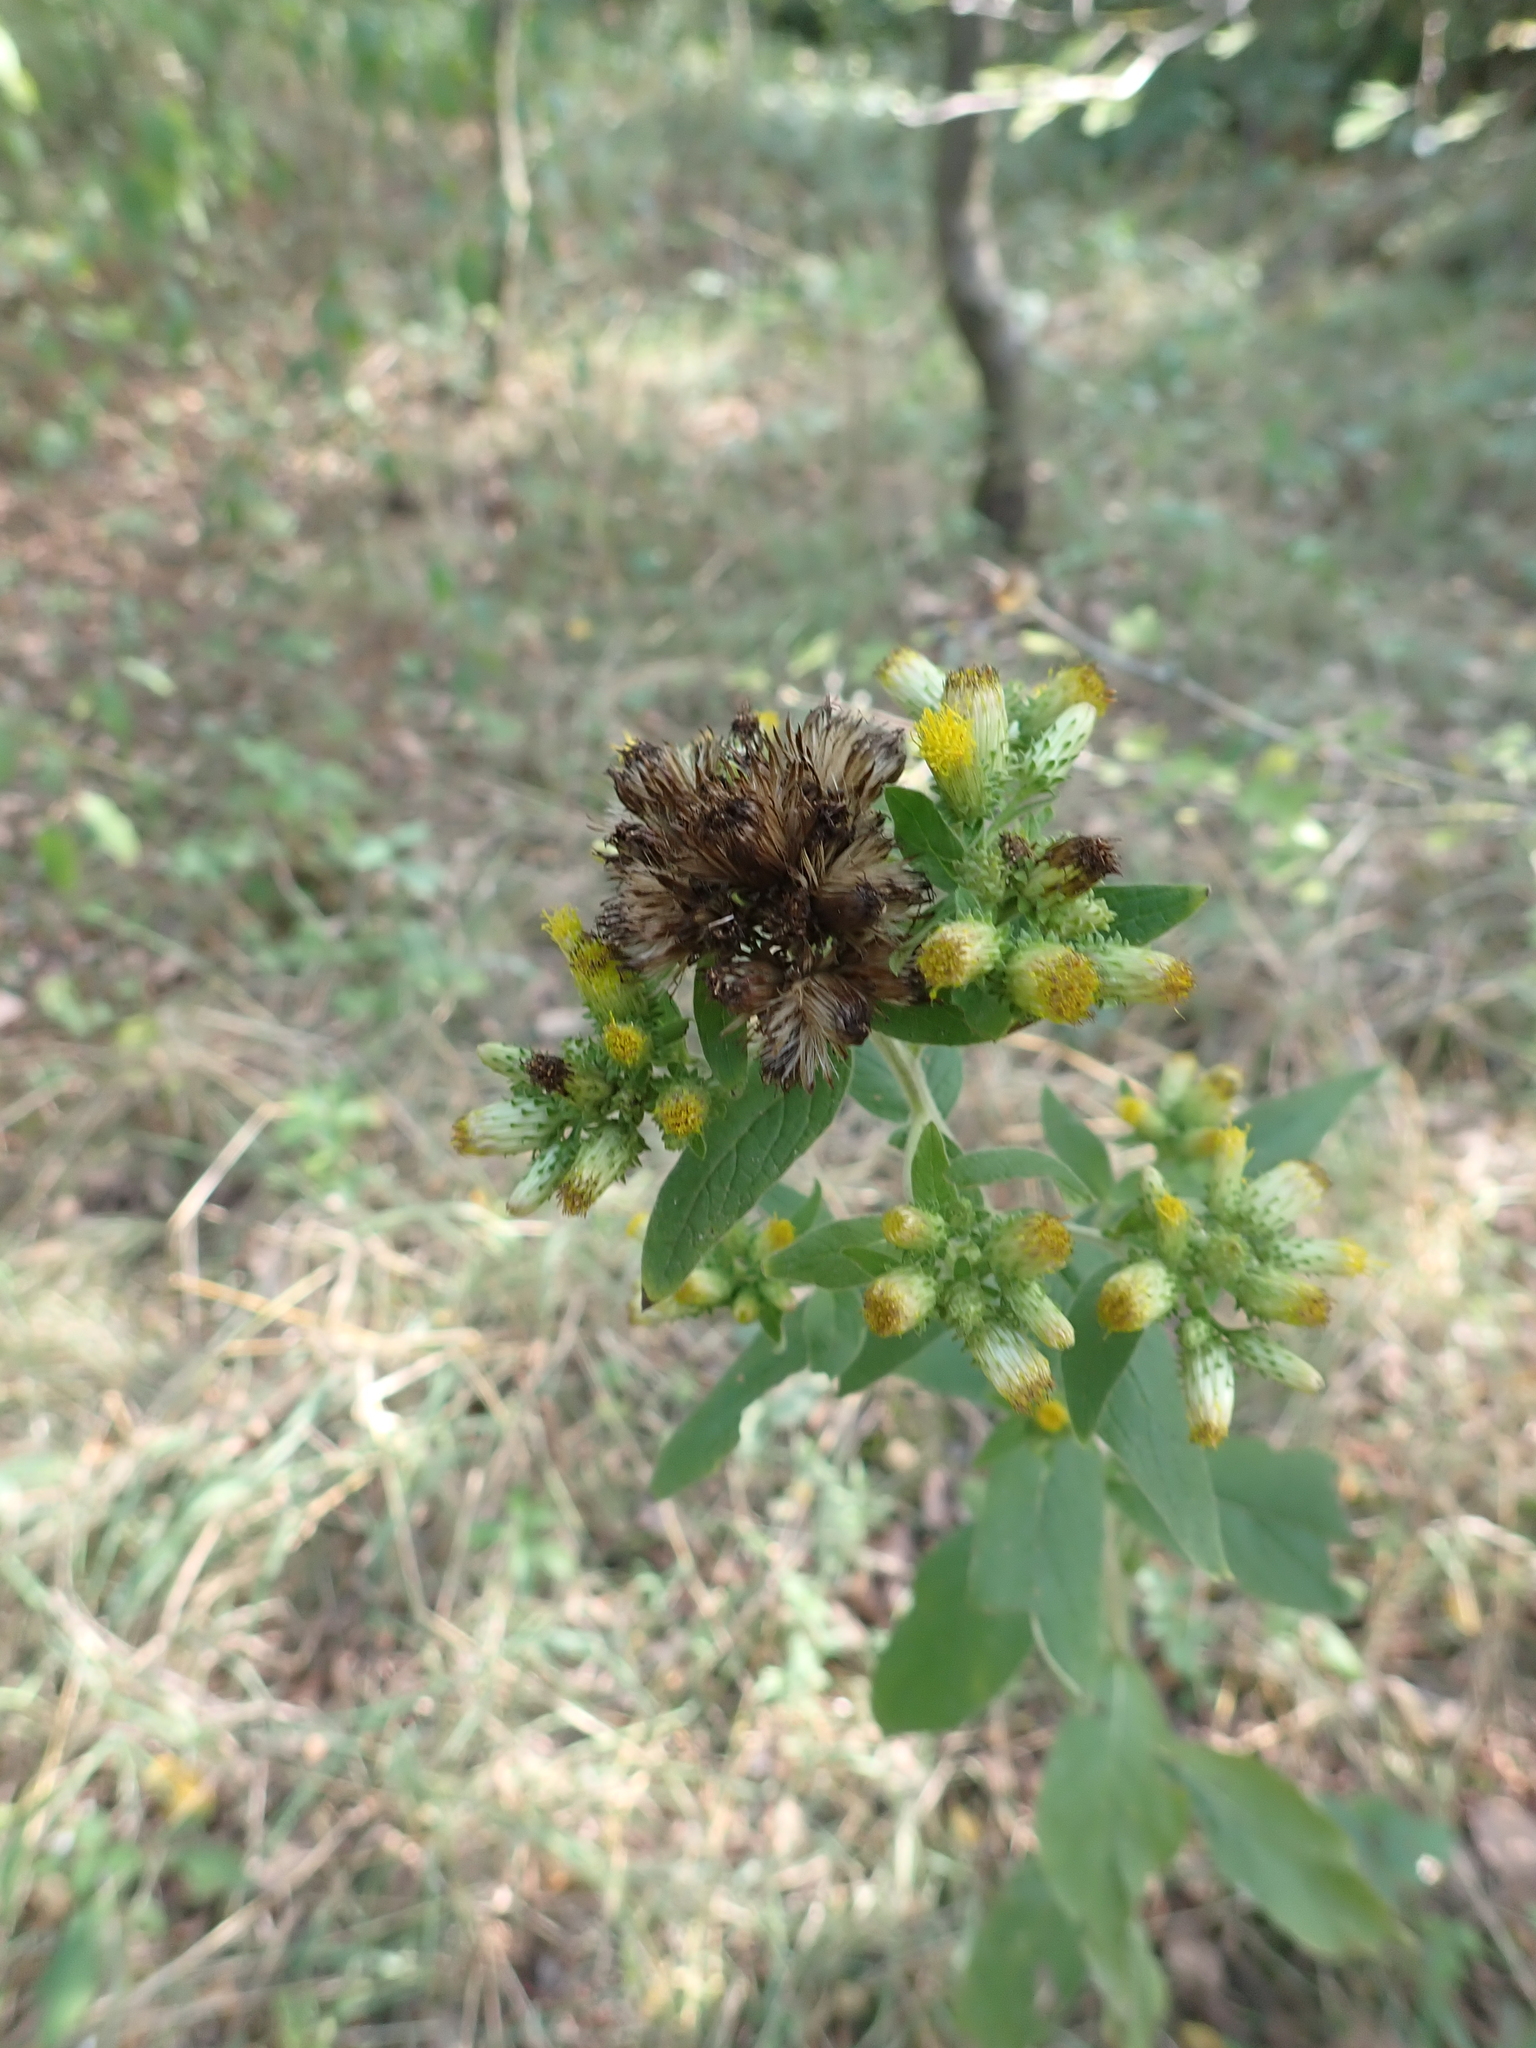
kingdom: Plantae
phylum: Tracheophyta
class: Magnoliopsida
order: Asterales
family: Asteraceae
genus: Pentanema
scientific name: Pentanema squarrosum
